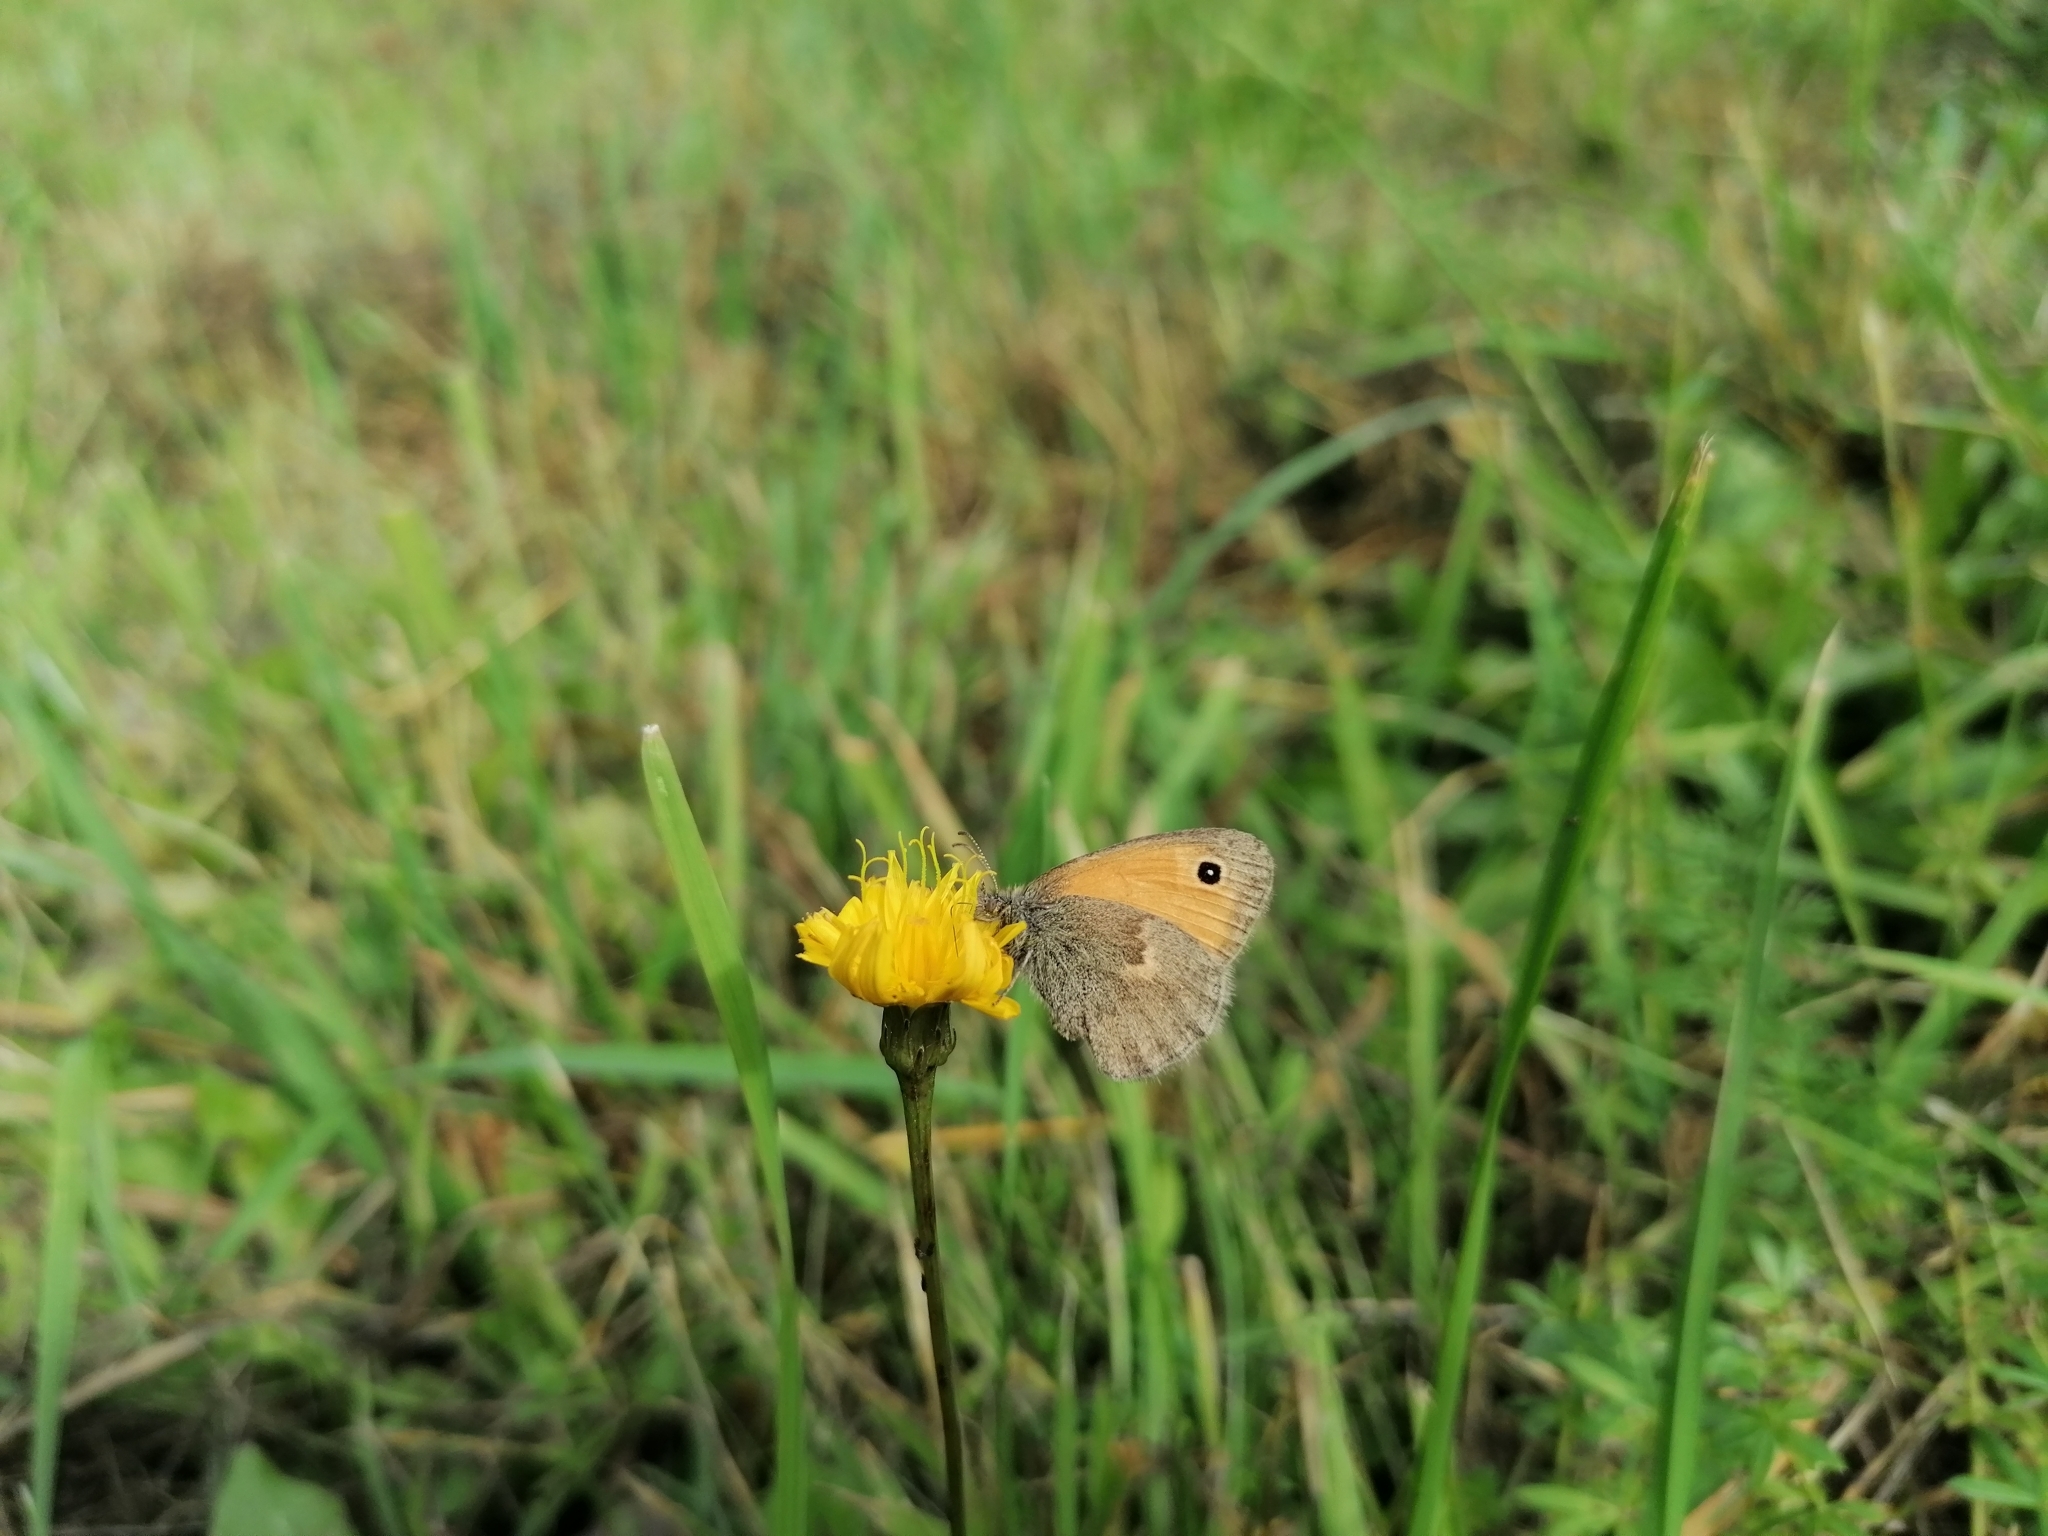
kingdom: Animalia
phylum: Arthropoda
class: Insecta
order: Lepidoptera
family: Nymphalidae
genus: Coenonympha
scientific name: Coenonympha pamphilus
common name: Small heath
